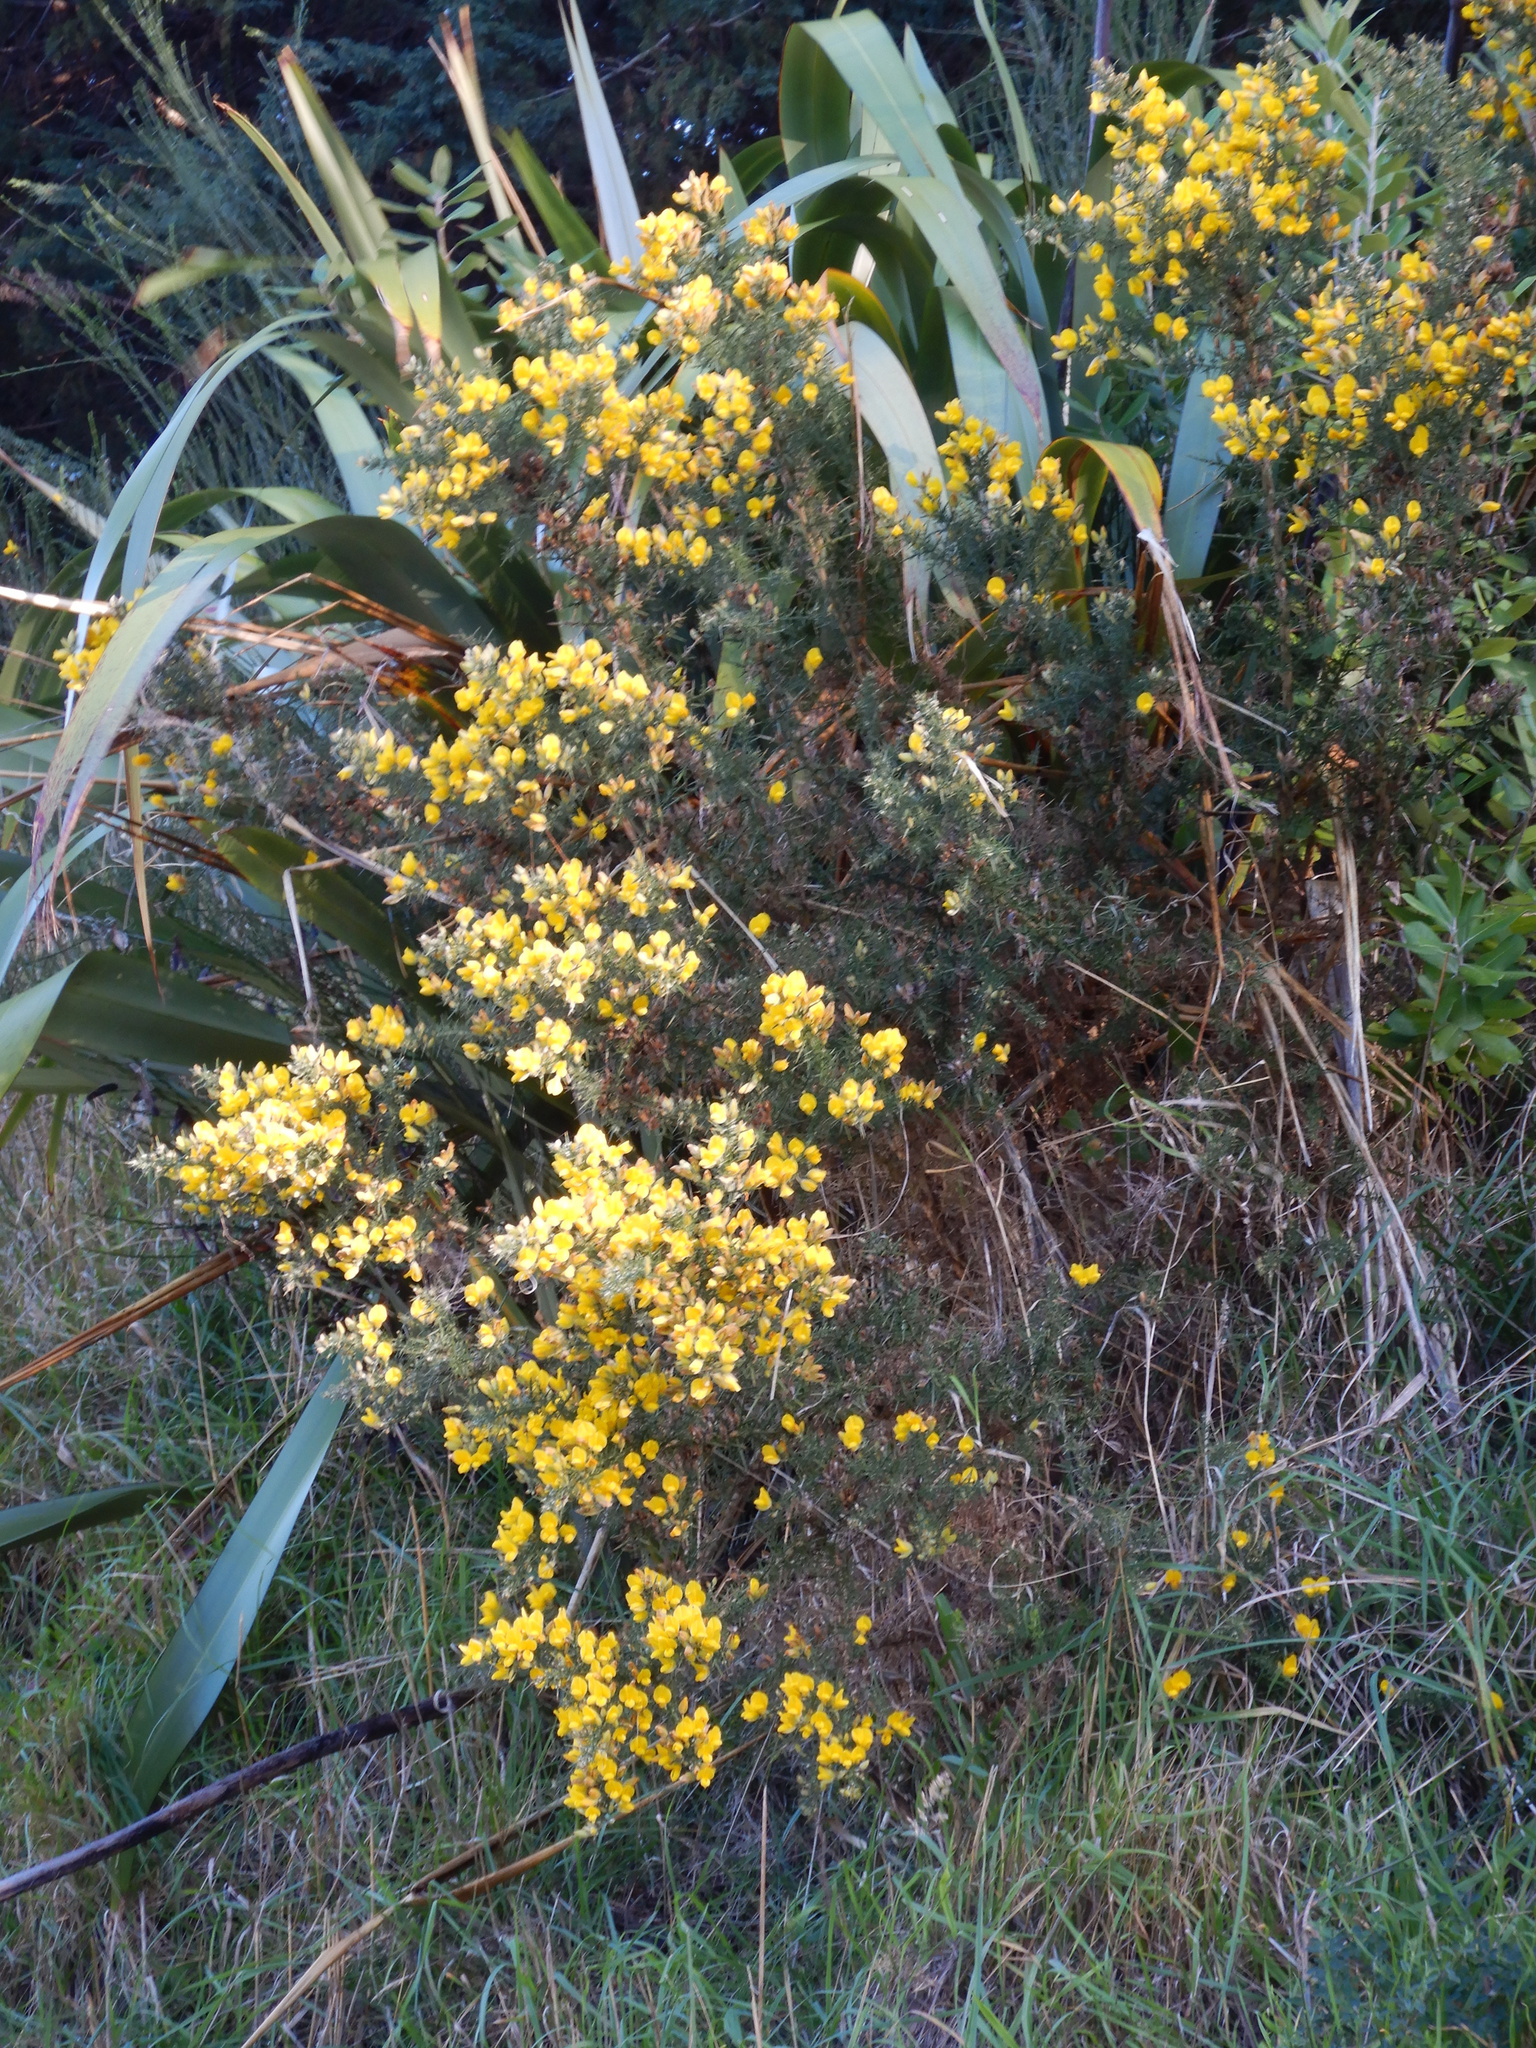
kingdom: Plantae
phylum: Tracheophyta
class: Magnoliopsida
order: Fabales
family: Fabaceae
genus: Ulex
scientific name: Ulex europaeus
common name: Common gorse
